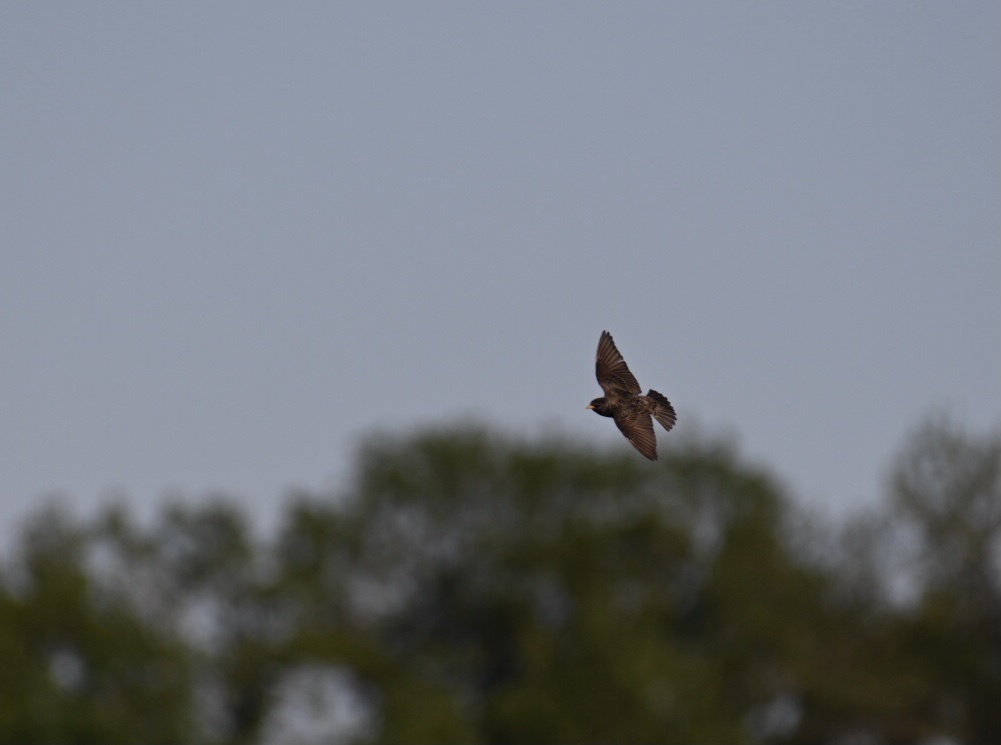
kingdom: Animalia
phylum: Chordata
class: Aves
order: Passeriformes
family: Sturnidae
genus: Sturnus
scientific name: Sturnus vulgaris
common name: Common starling
